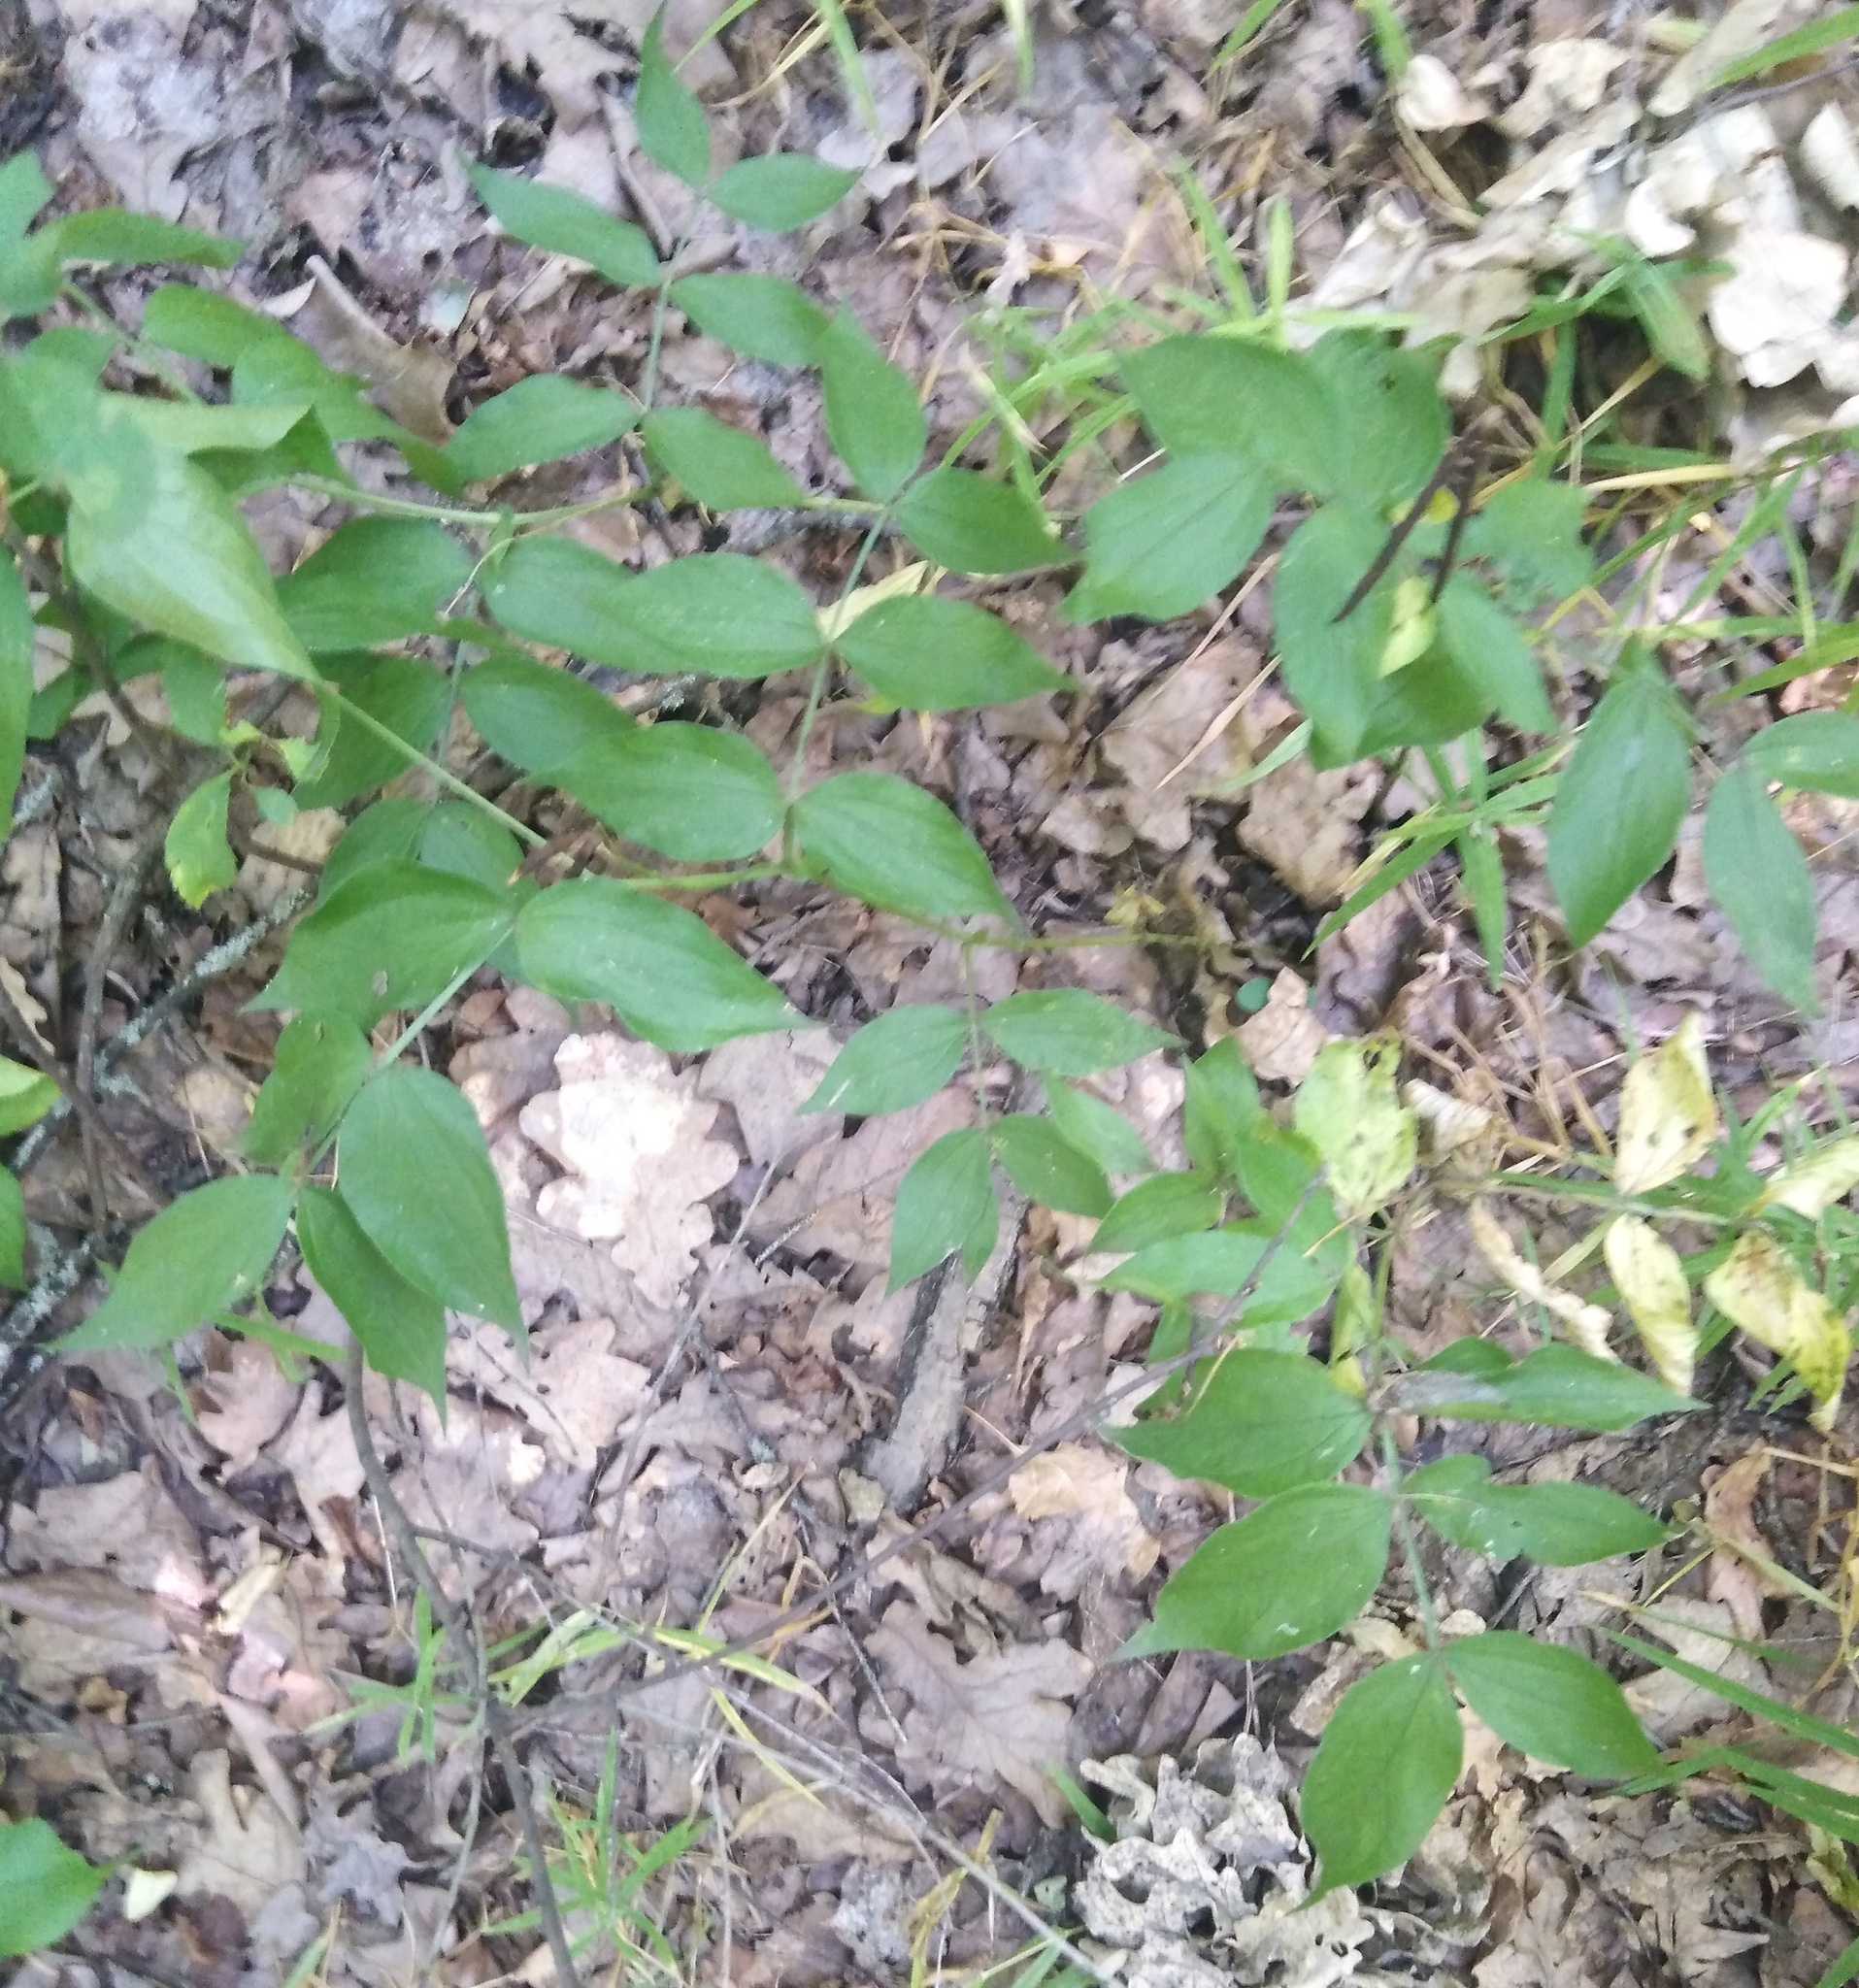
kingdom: Plantae
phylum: Tracheophyta
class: Magnoliopsida
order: Fabales
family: Fabaceae
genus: Lathyrus
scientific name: Lathyrus vernus
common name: Spring pea
